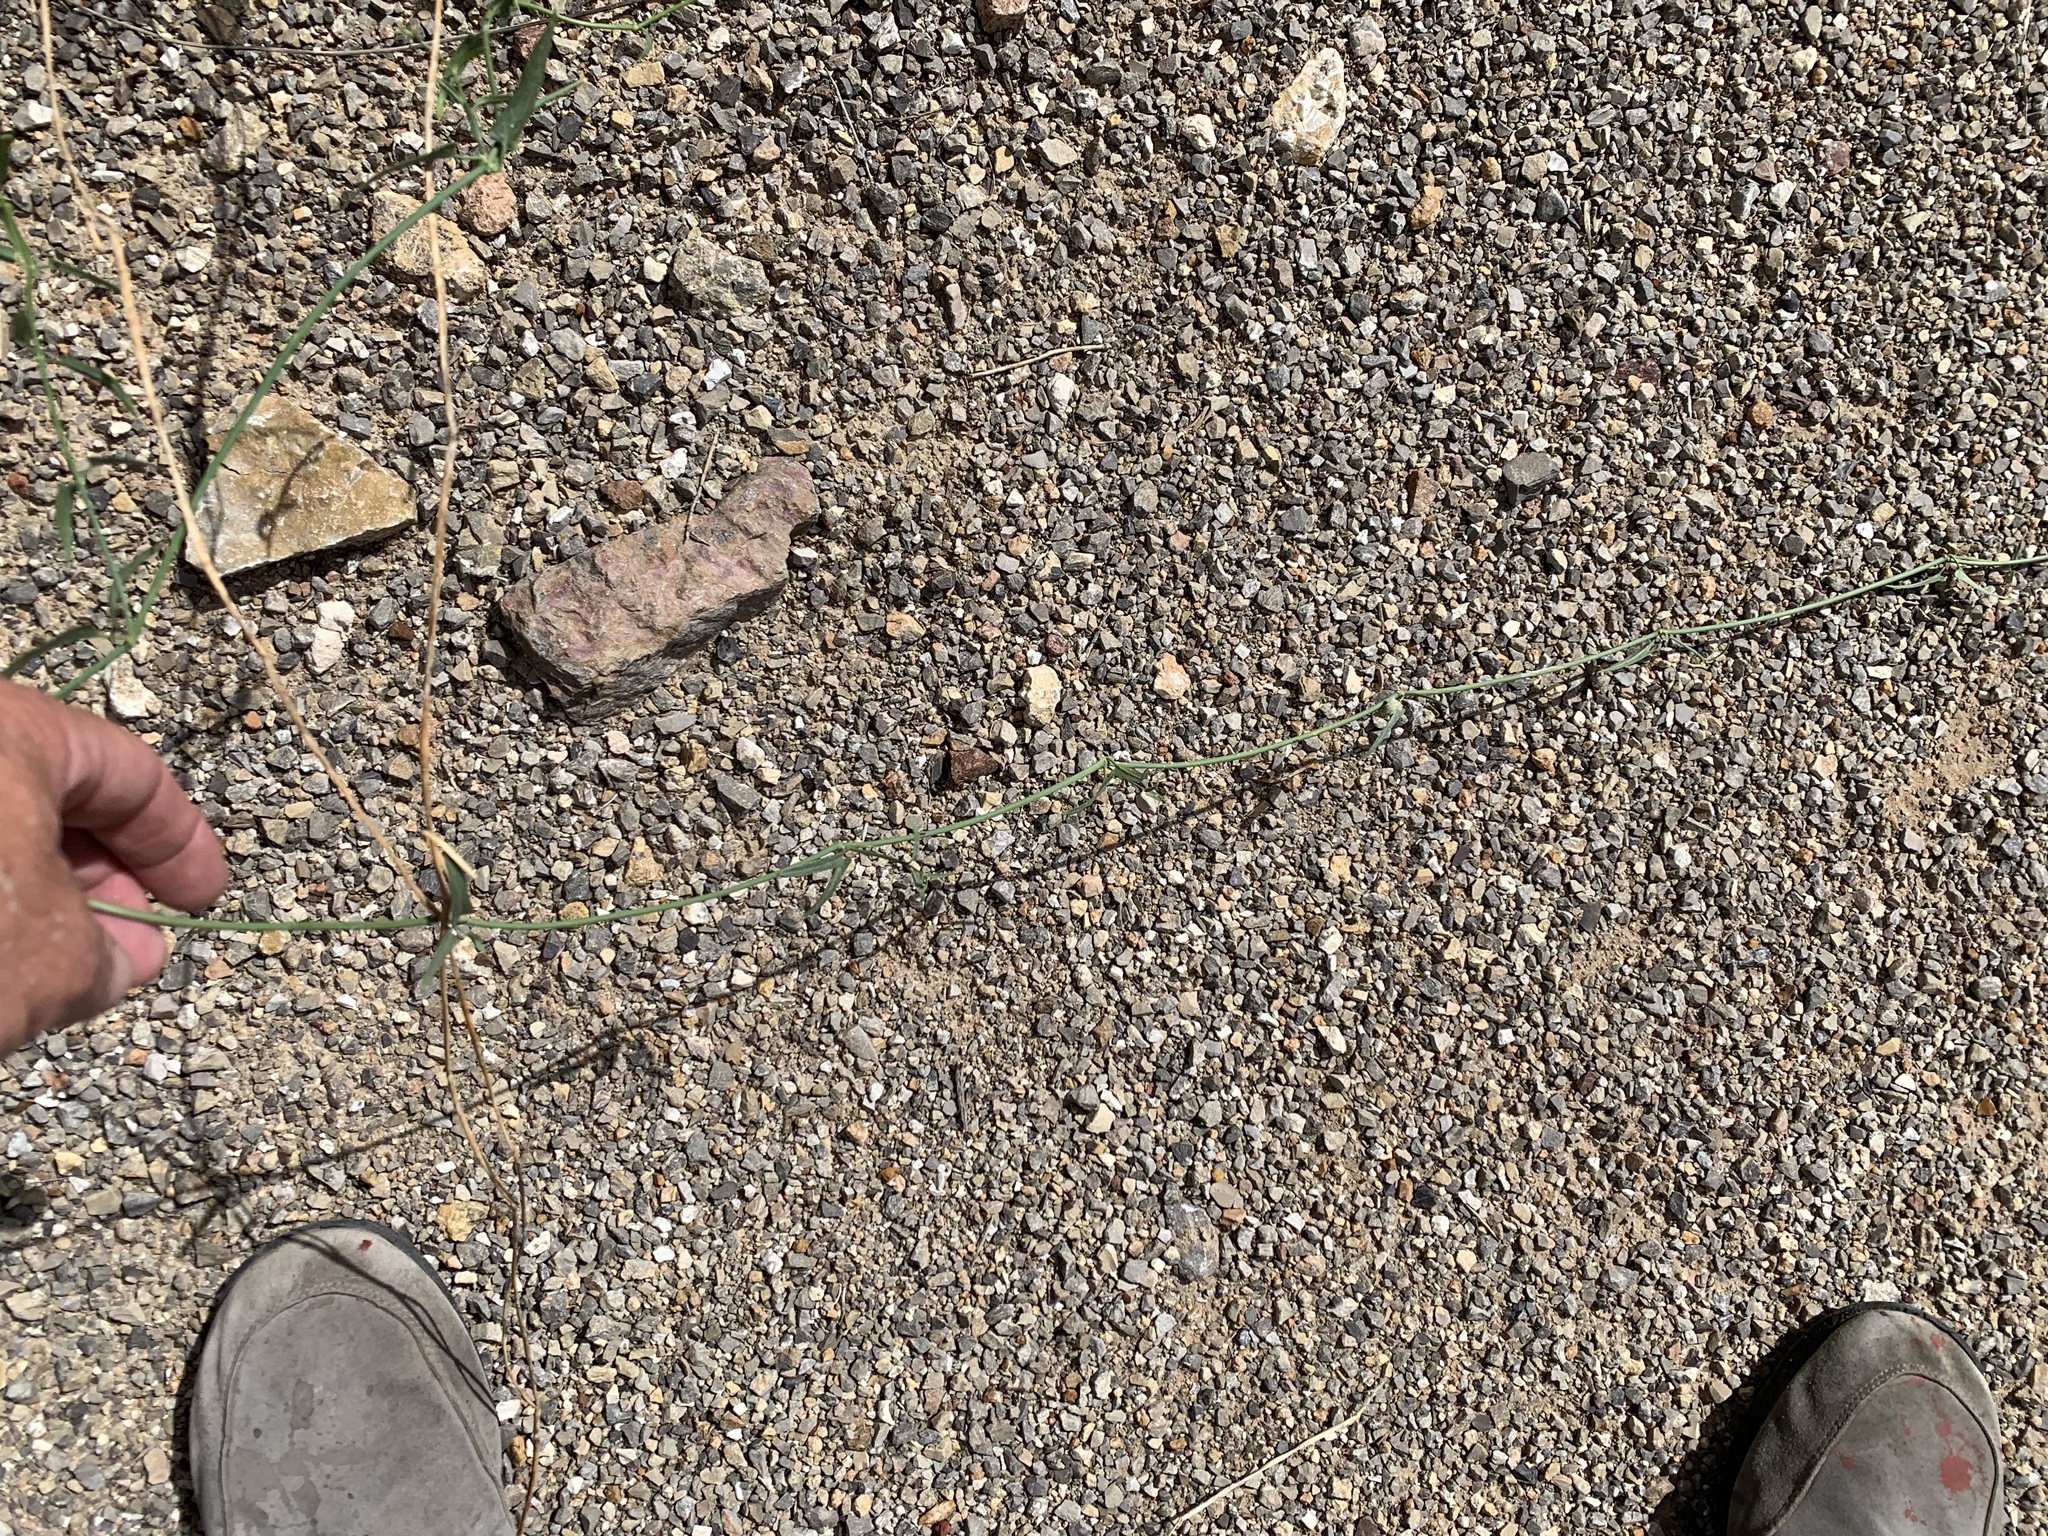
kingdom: Plantae
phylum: Tracheophyta
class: Magnoliopsida
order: Gentianales
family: Apocynaceae
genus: Funastrum
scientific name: Funastrum heterophyllum
